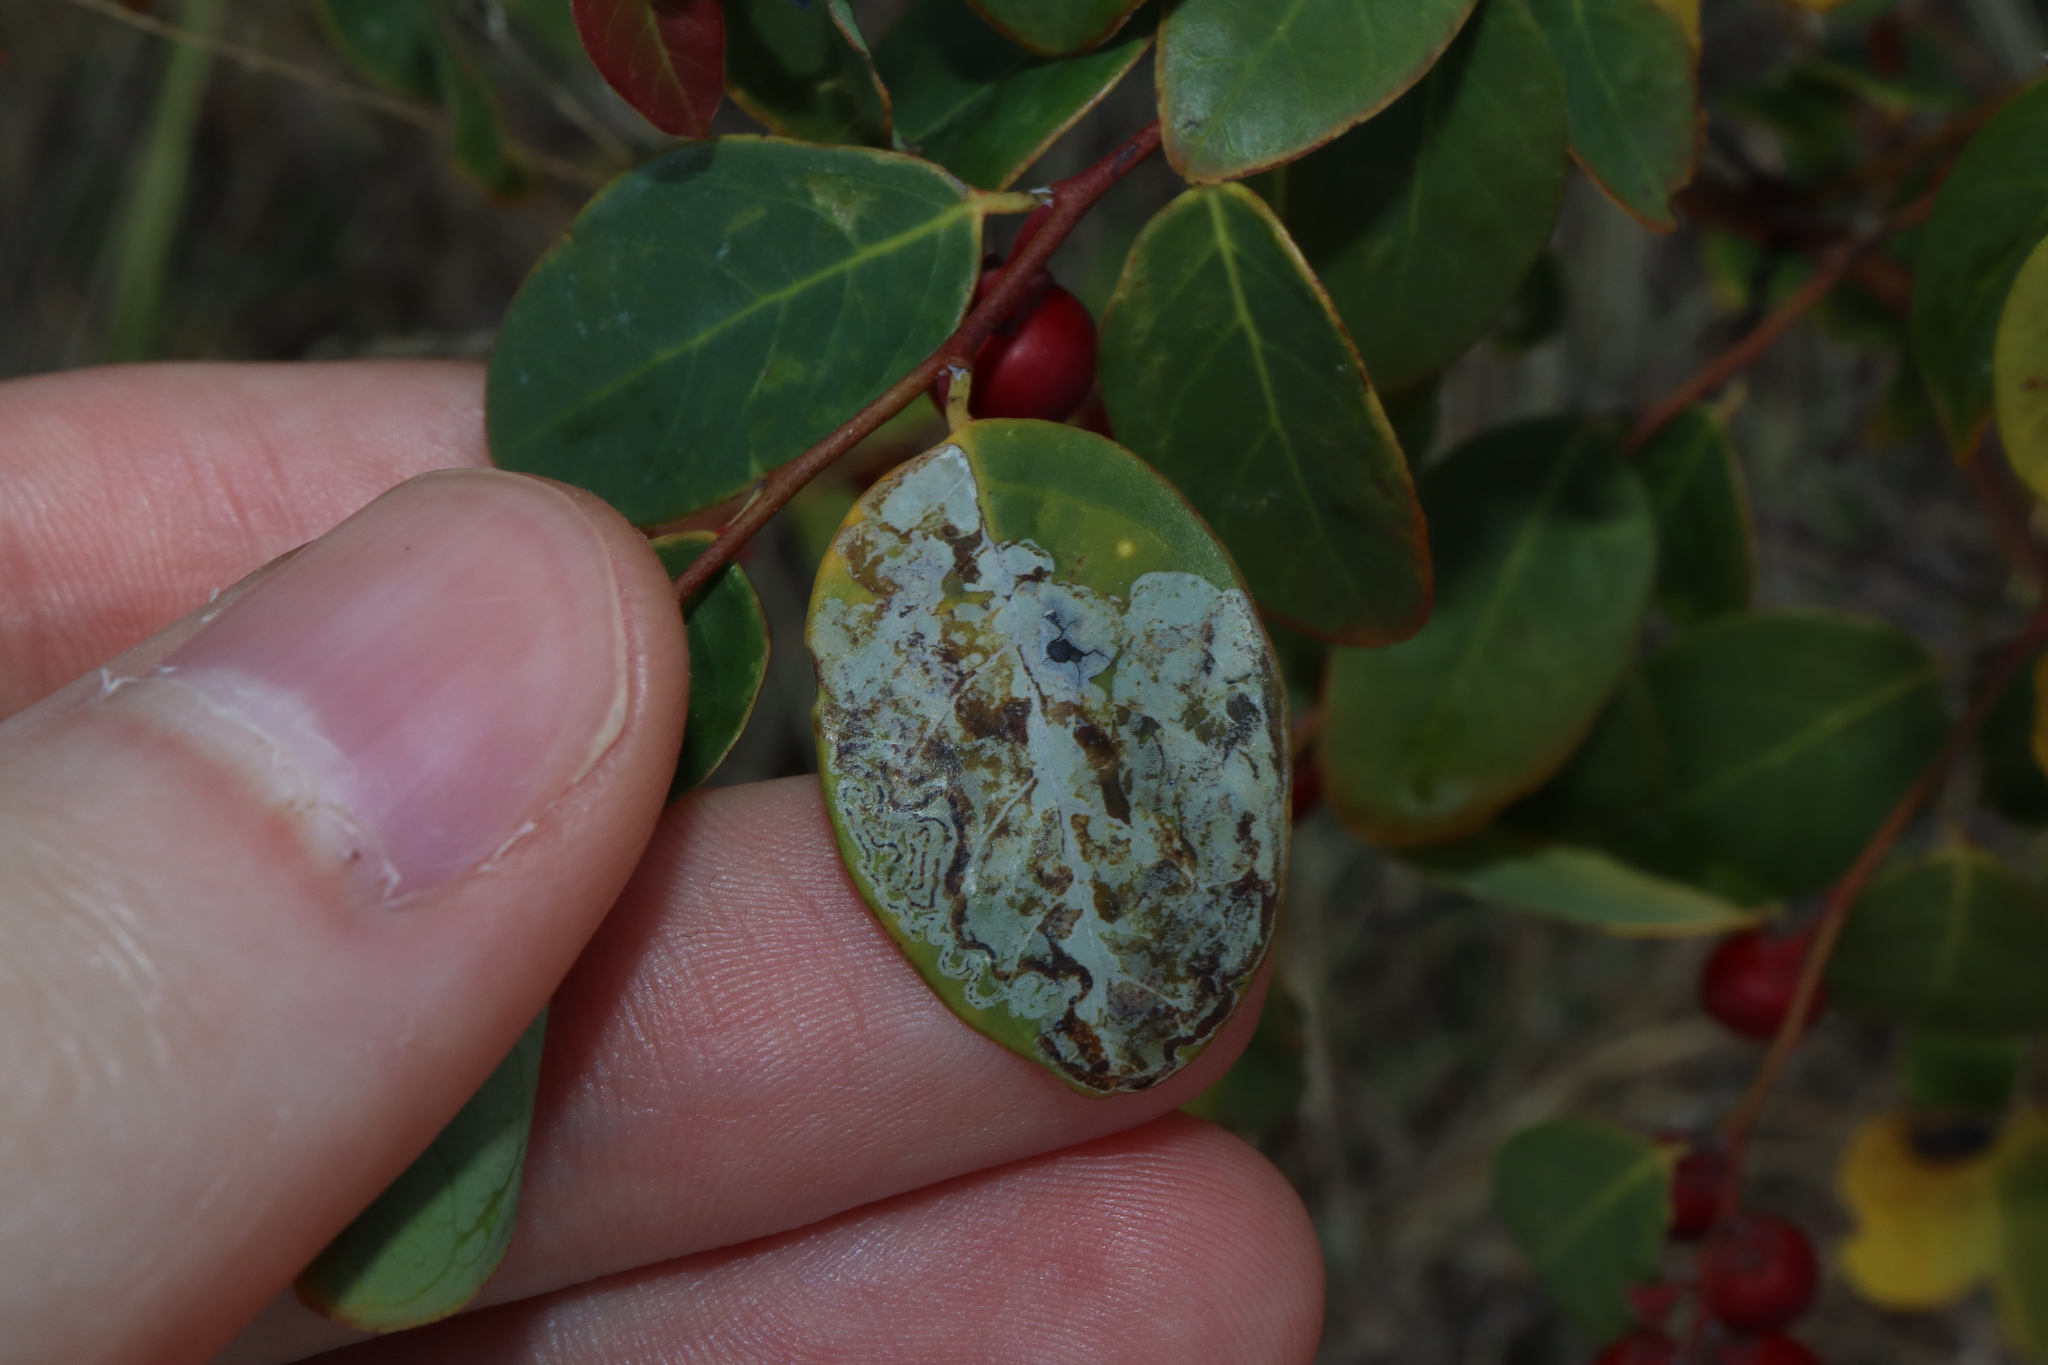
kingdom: Animalia
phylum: Arthropoda
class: Insecta
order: Lepidoptera
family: Gracillariidae
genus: Phyllocnistis
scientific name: Phyllocnistis diaugella
